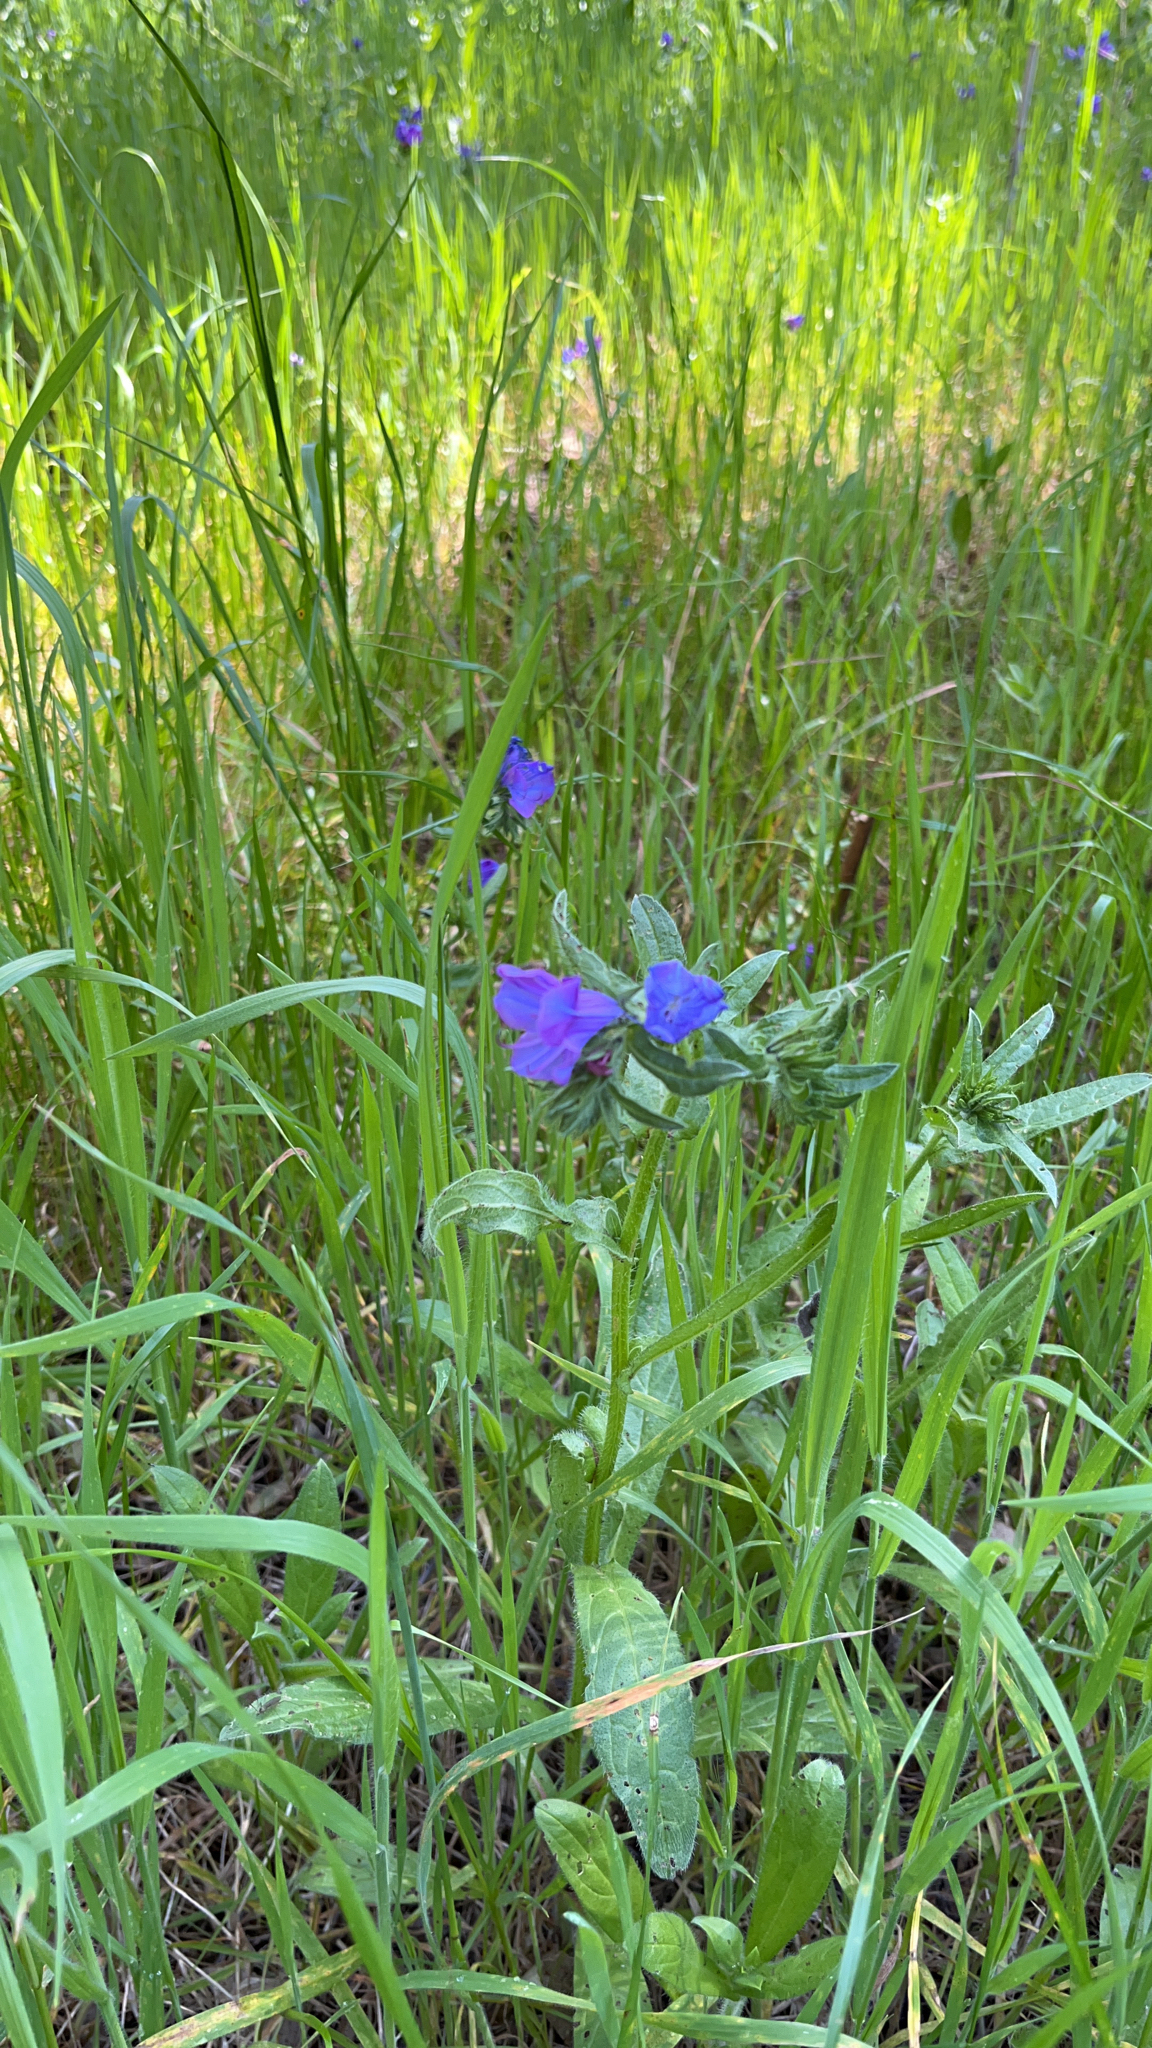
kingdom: Plantae
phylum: Tracheophyta
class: Magnoliopsida
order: Boraginales
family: Boraginaceae
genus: Echium
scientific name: Echium plantagineum
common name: Purple viper's-bugloss
